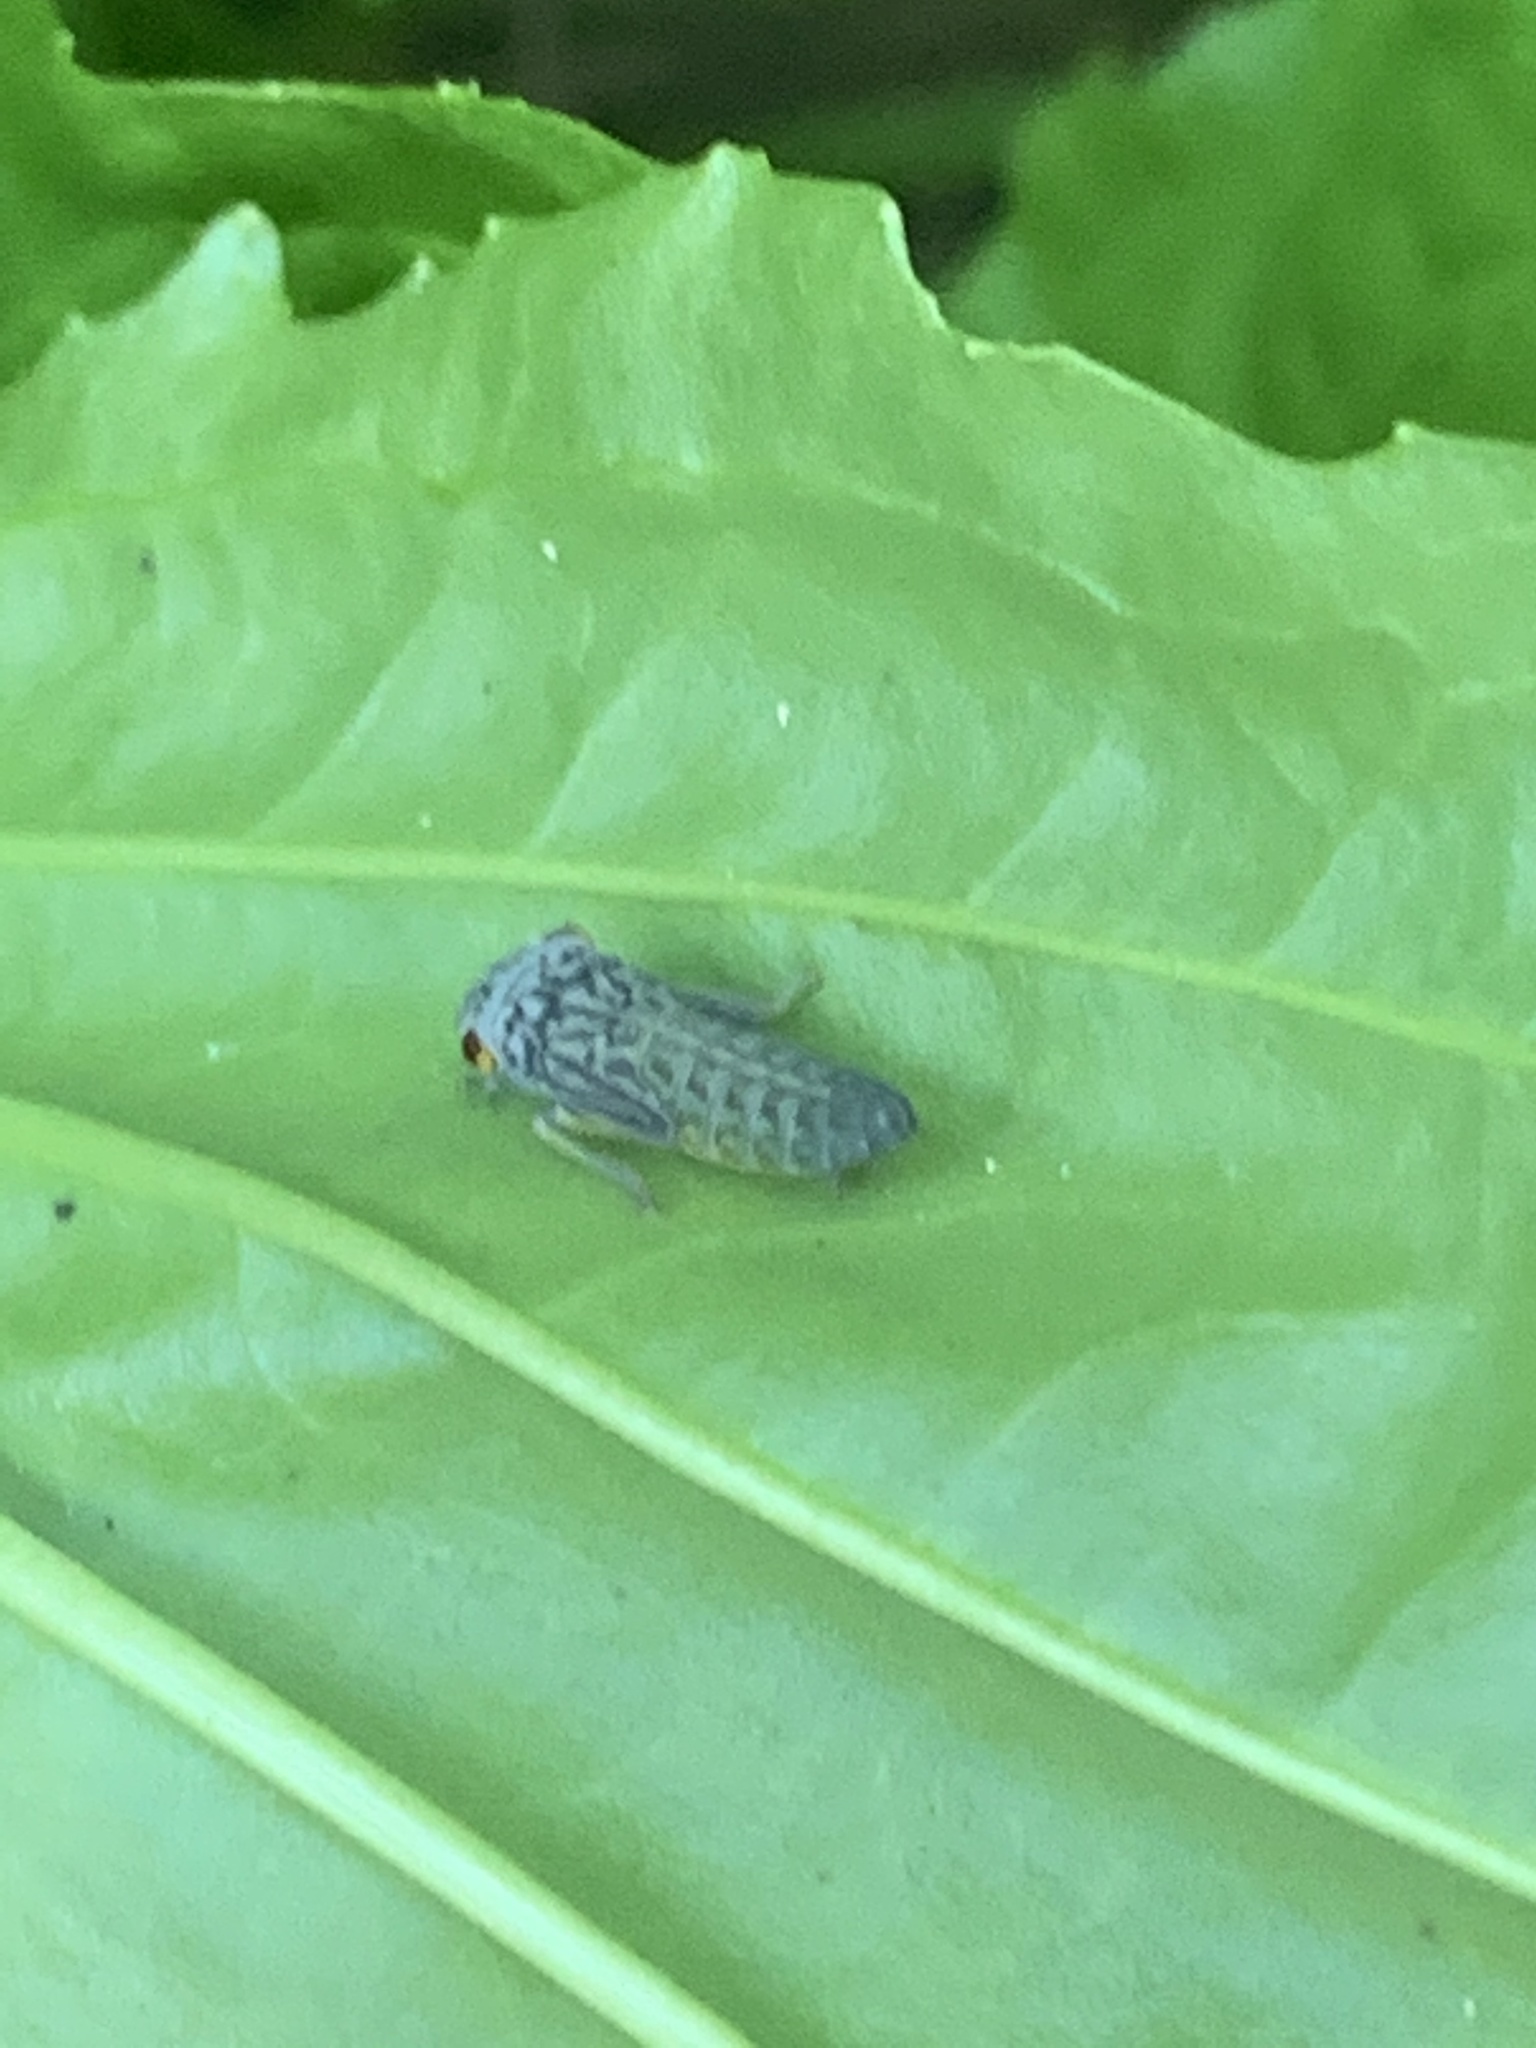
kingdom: Animalia
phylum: Arthropoda
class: Insecta
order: Hemiptera
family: Cicadellidae
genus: Oncometopia
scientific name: Oncometopia orbona
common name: Broad-headed sharpshooter
